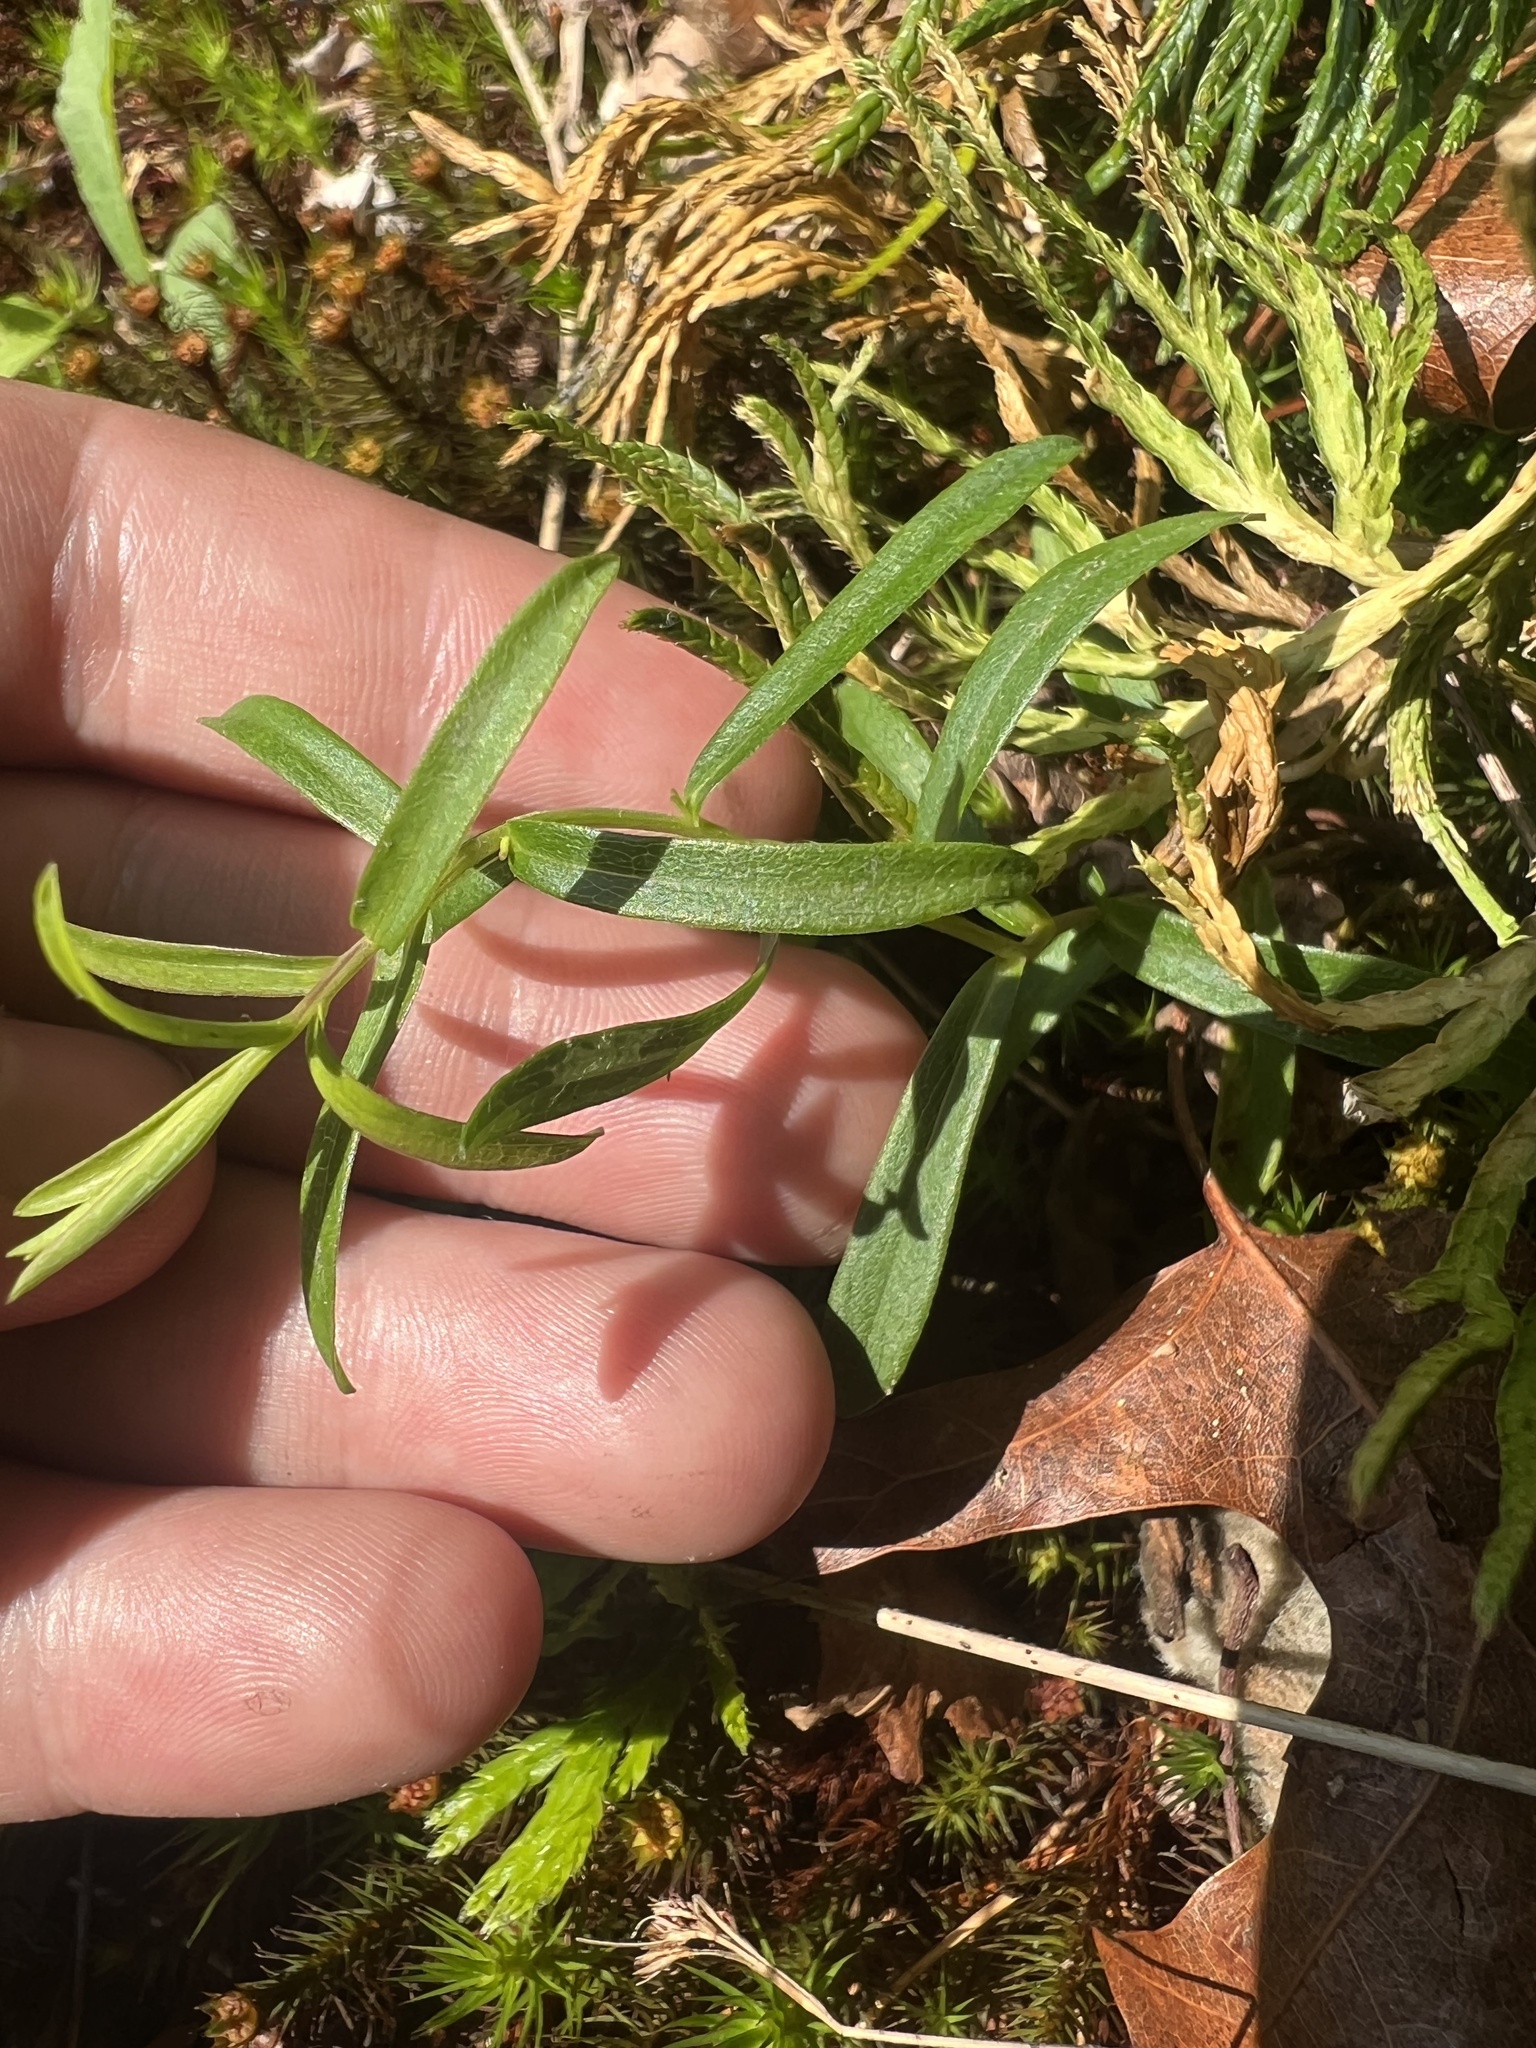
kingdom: Plantae
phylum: Tracheophyta
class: Magnoliopsida
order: Fabales
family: Polygalaceae
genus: Polygala
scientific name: Polygala curtissii
